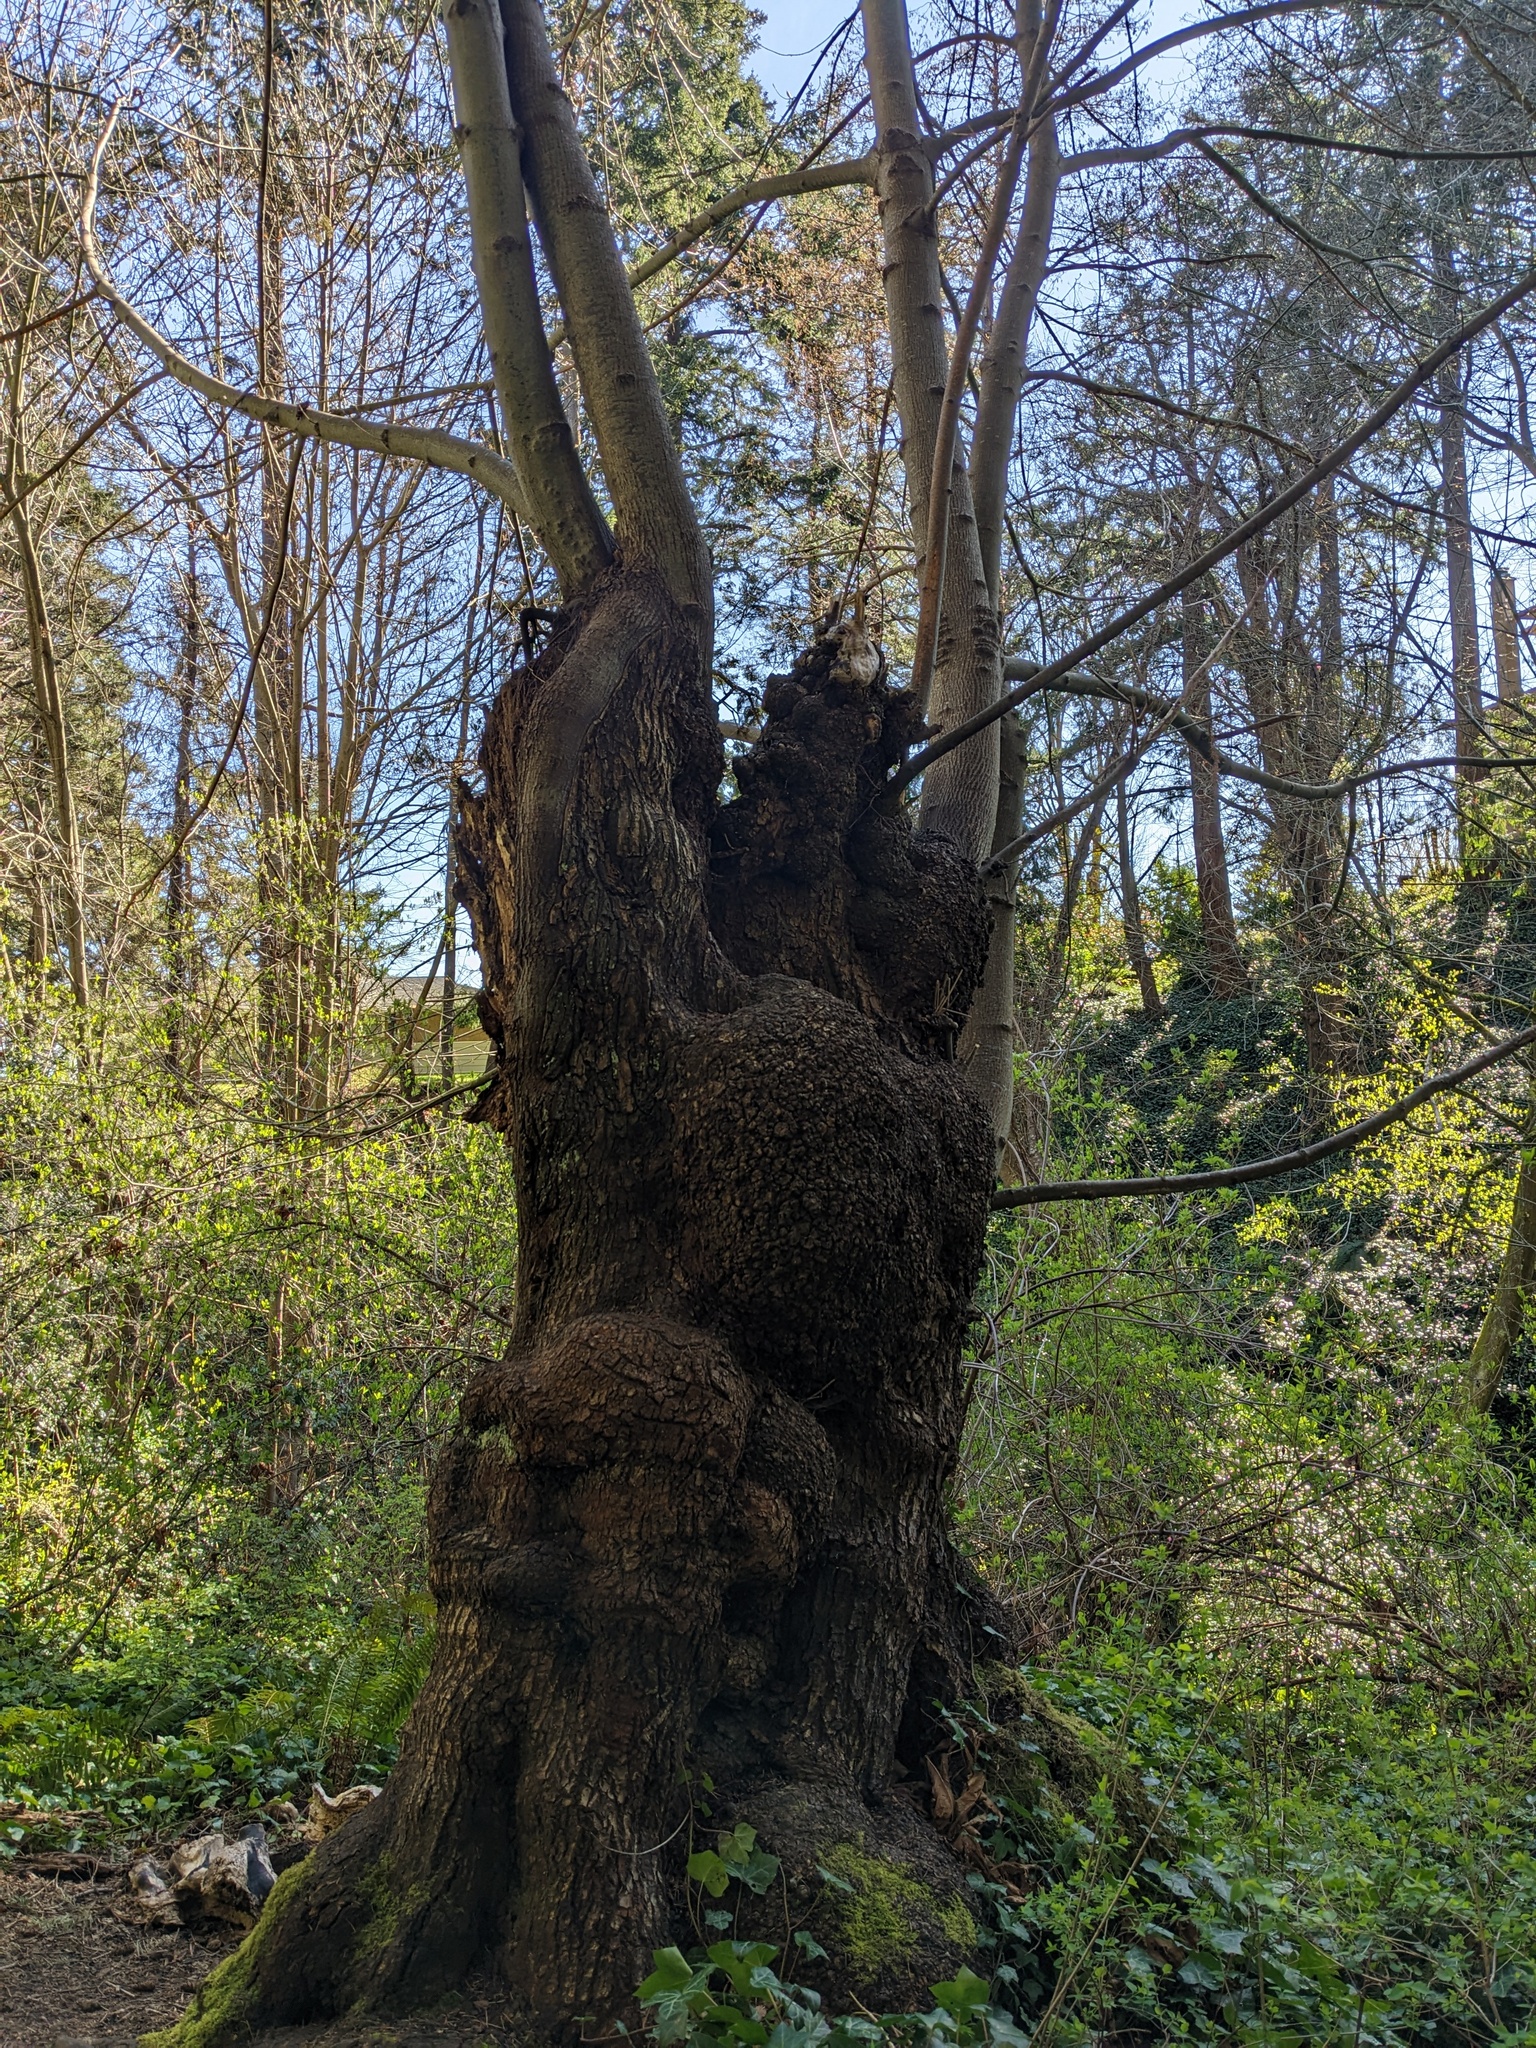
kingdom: Plantae
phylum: Tracheophyta
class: Magnoliopsida
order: Sapindales
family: Sapindaceae
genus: Acer
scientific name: Acer macrophyllum
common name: Oregon maple
